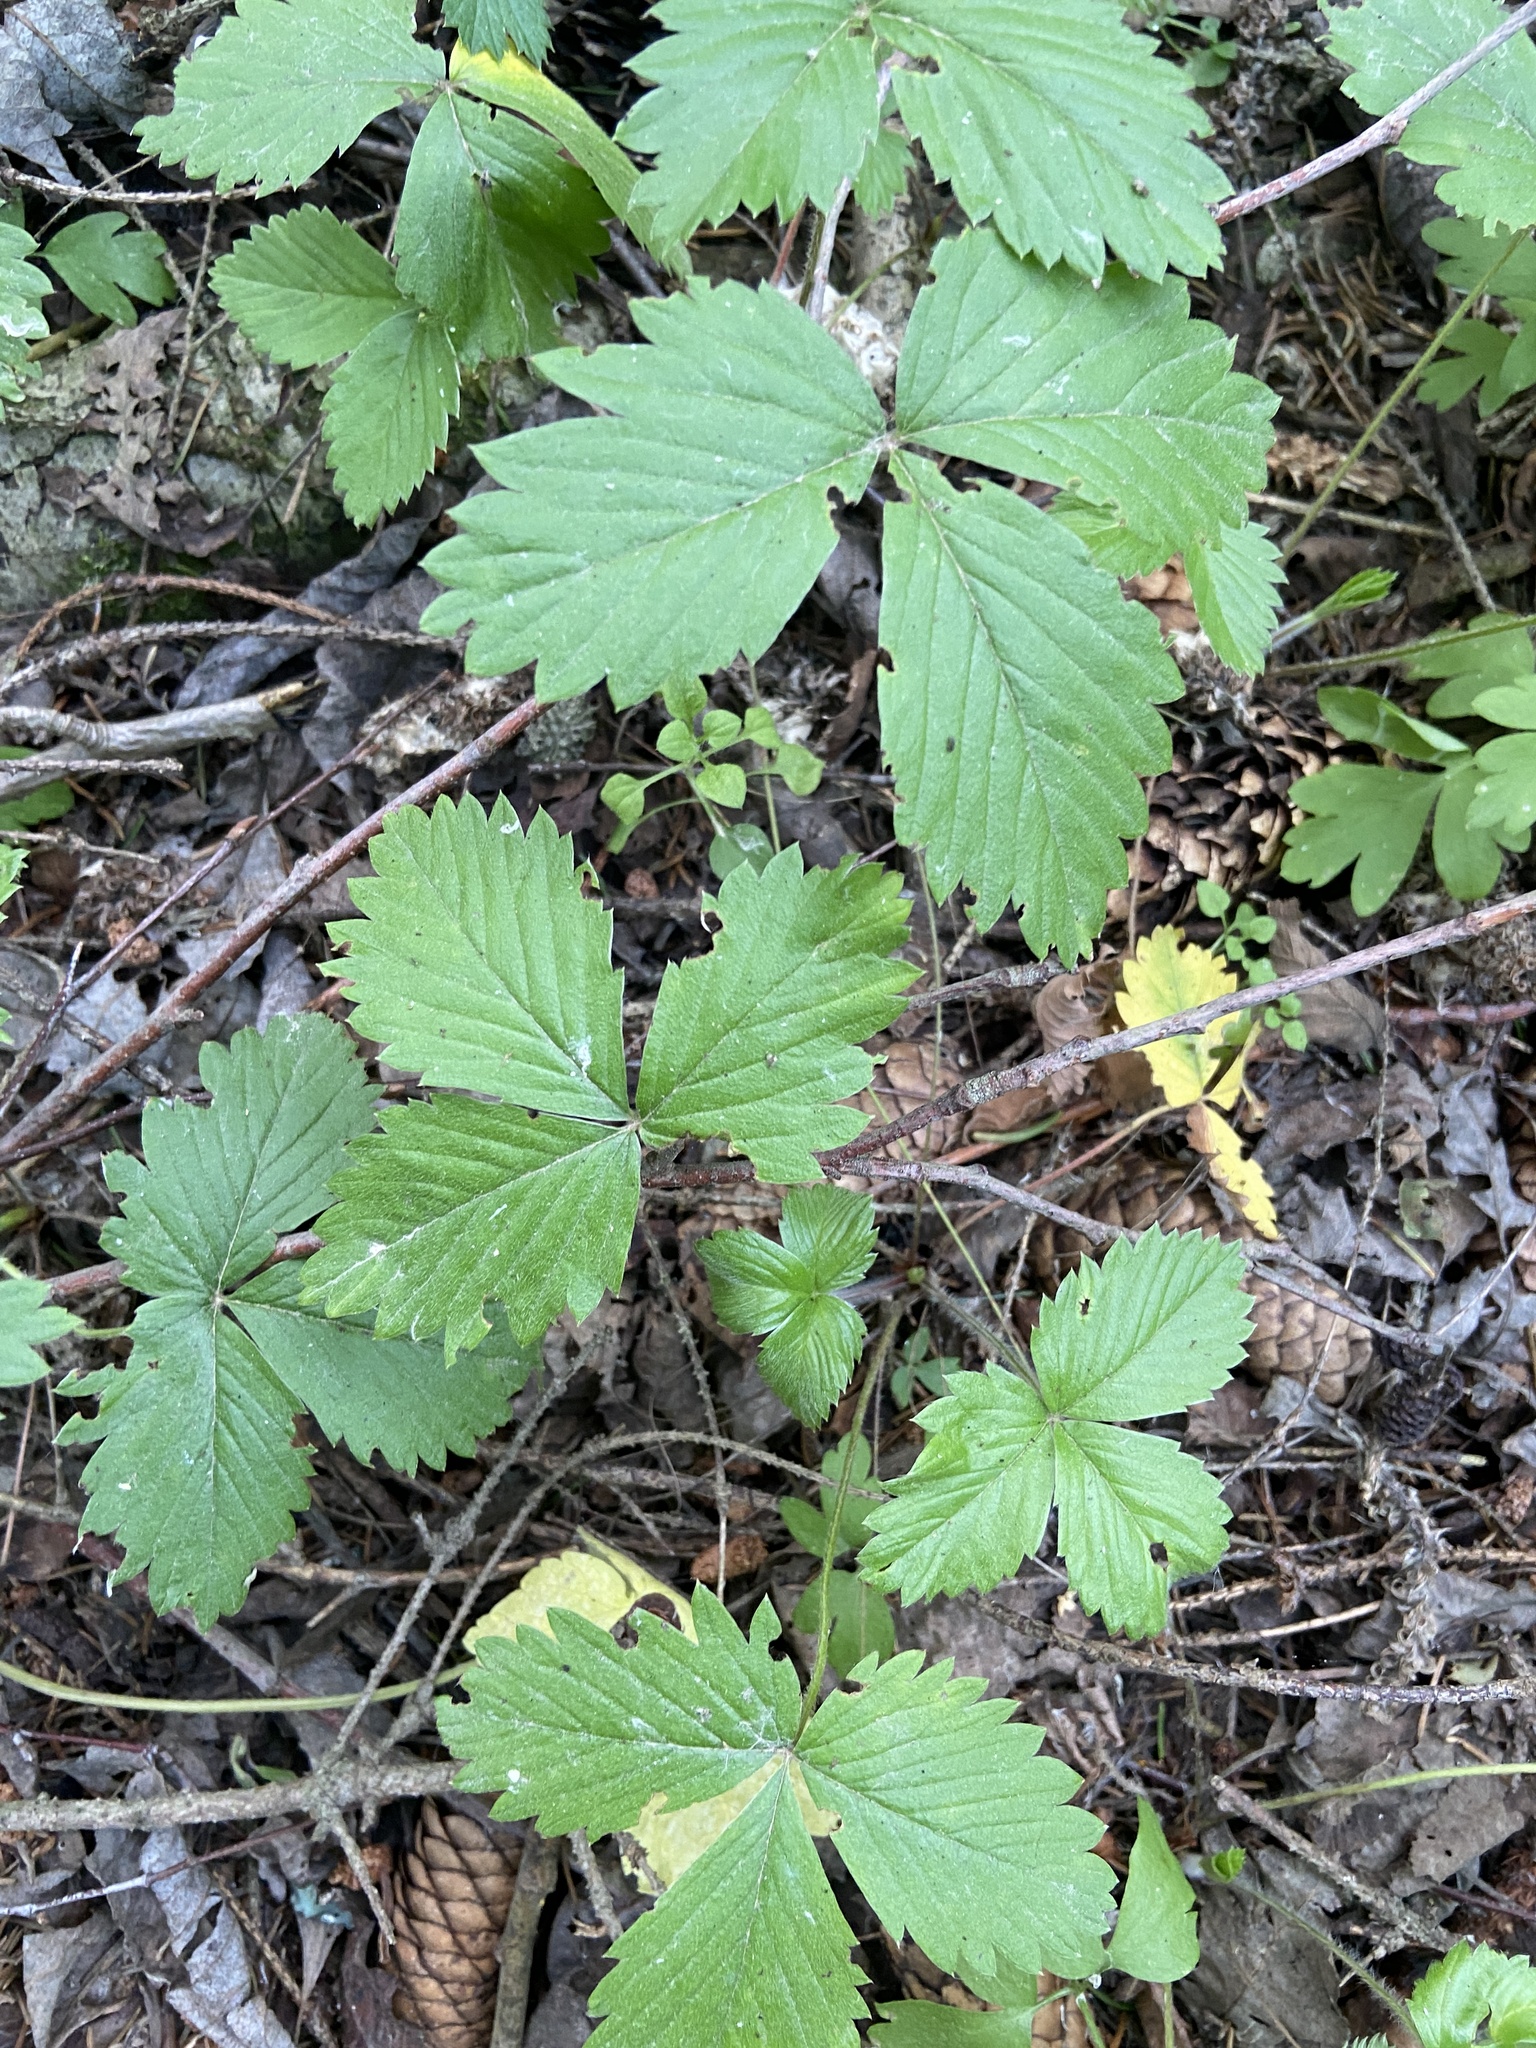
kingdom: Plantae
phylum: Tracheophyta
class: Magnoliopsida
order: Rosales
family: Rosaceae
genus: Fragaria
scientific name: Fragaria vesca
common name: Wild strawberry
